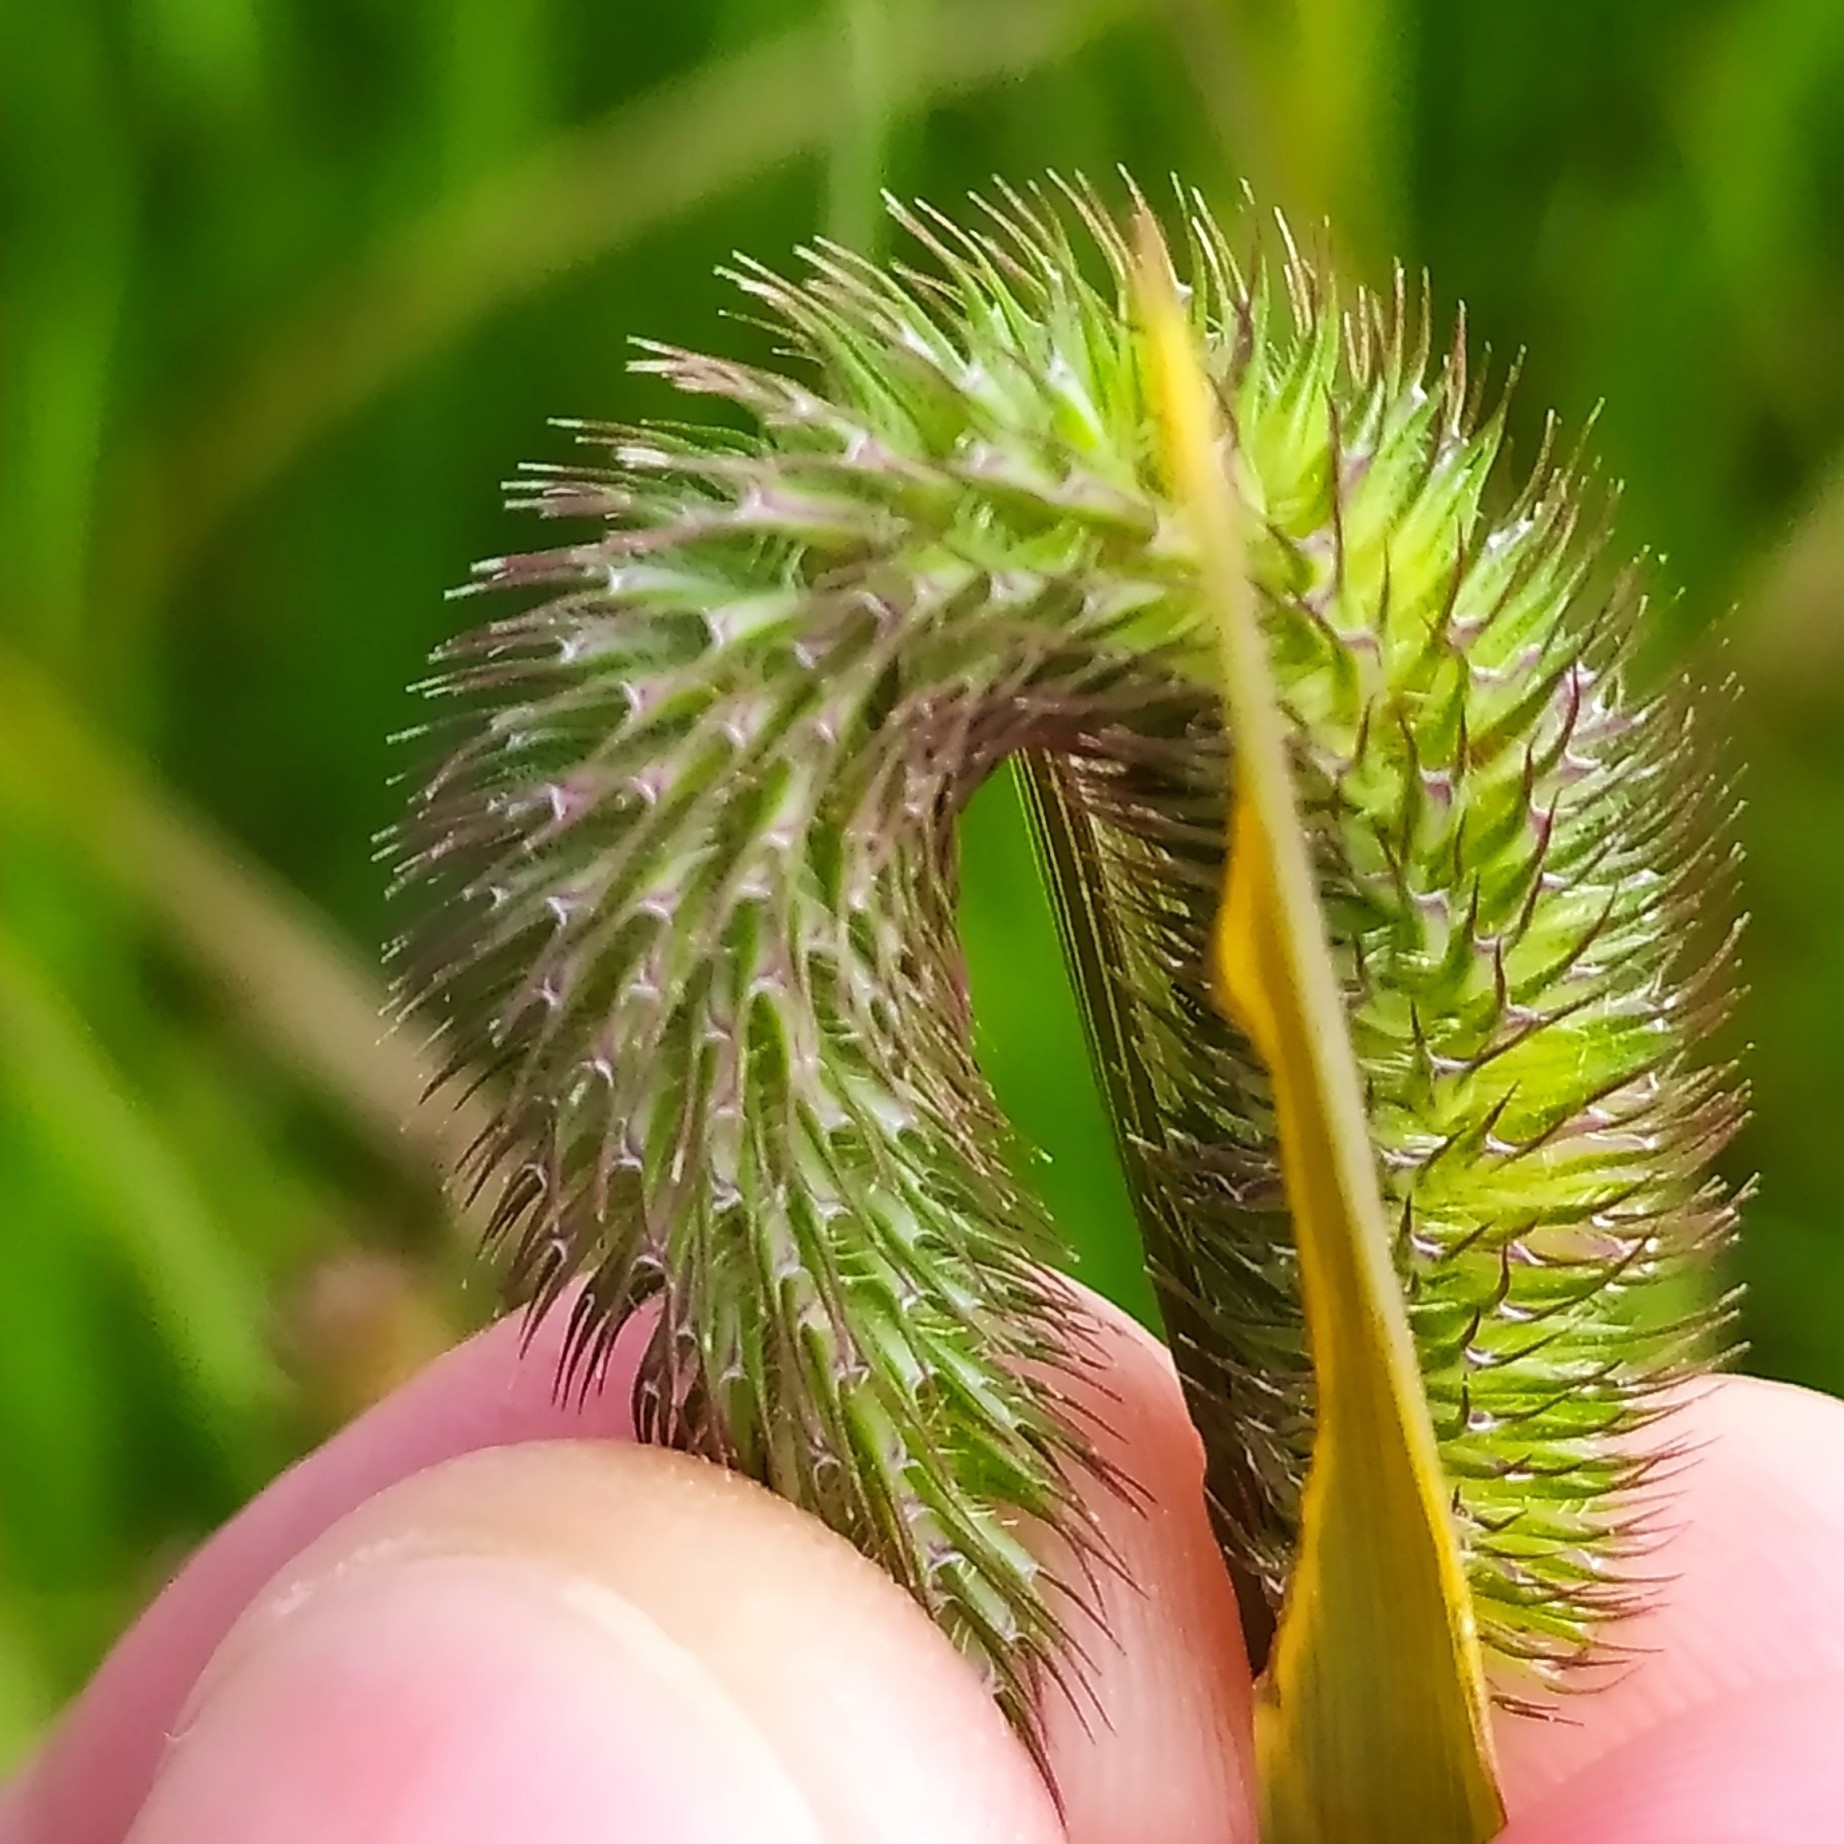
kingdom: Plantae
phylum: Tracheophyta
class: Liliopsida
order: Poales
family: Poaceae
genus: Phleum
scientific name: Phleum pratense
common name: Timothy grass
